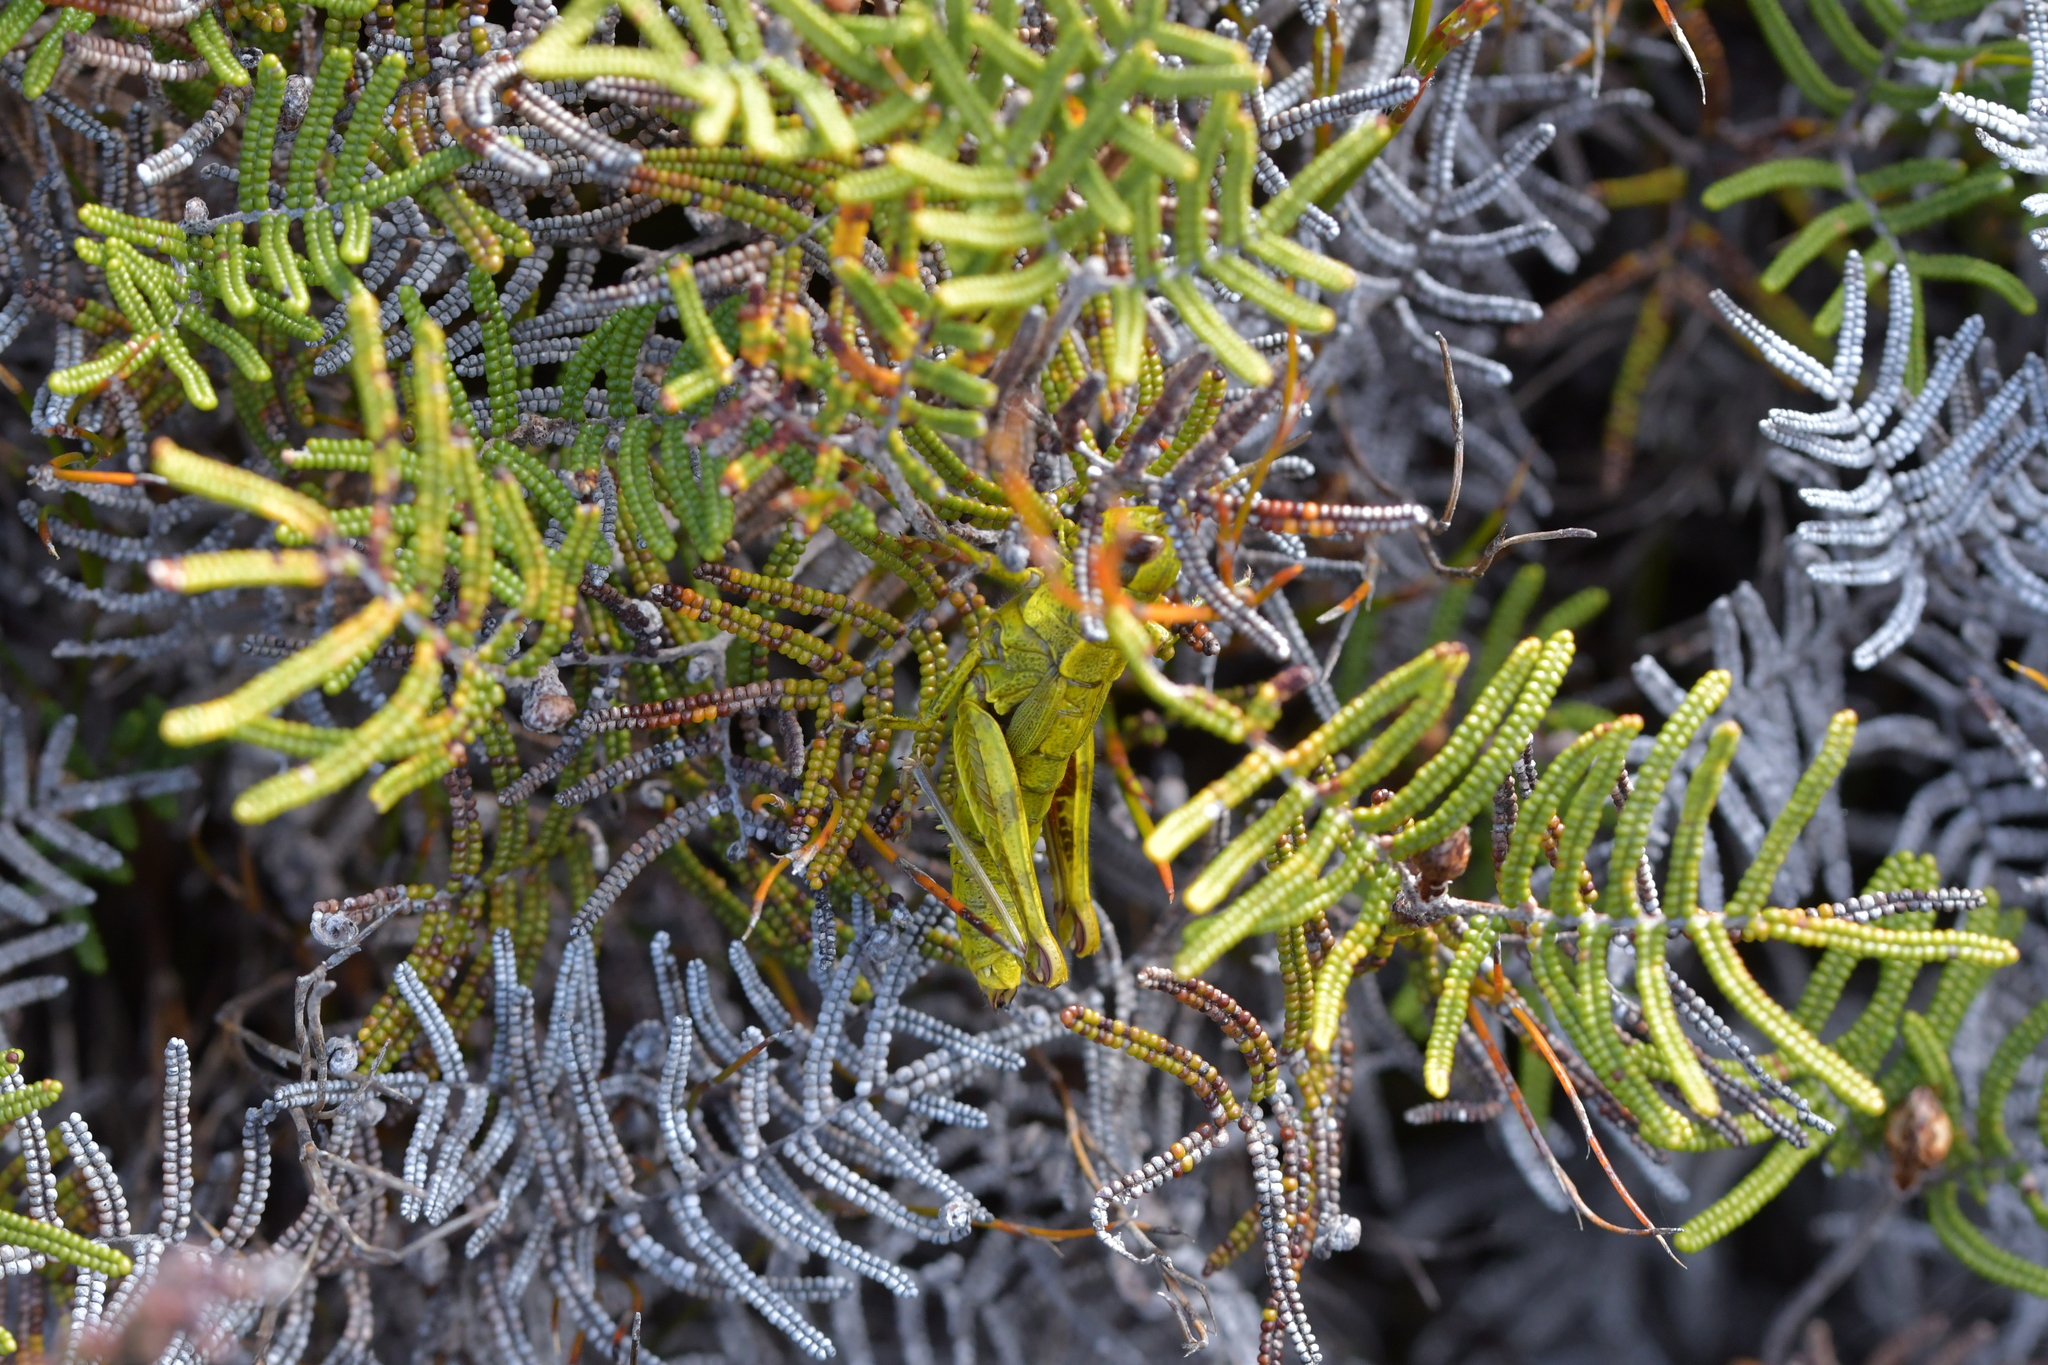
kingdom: Animalia
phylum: Arthropoda
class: Insecta
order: Orthoptera
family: Acrididae
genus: Sigaus
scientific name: Sigaus piliferus
